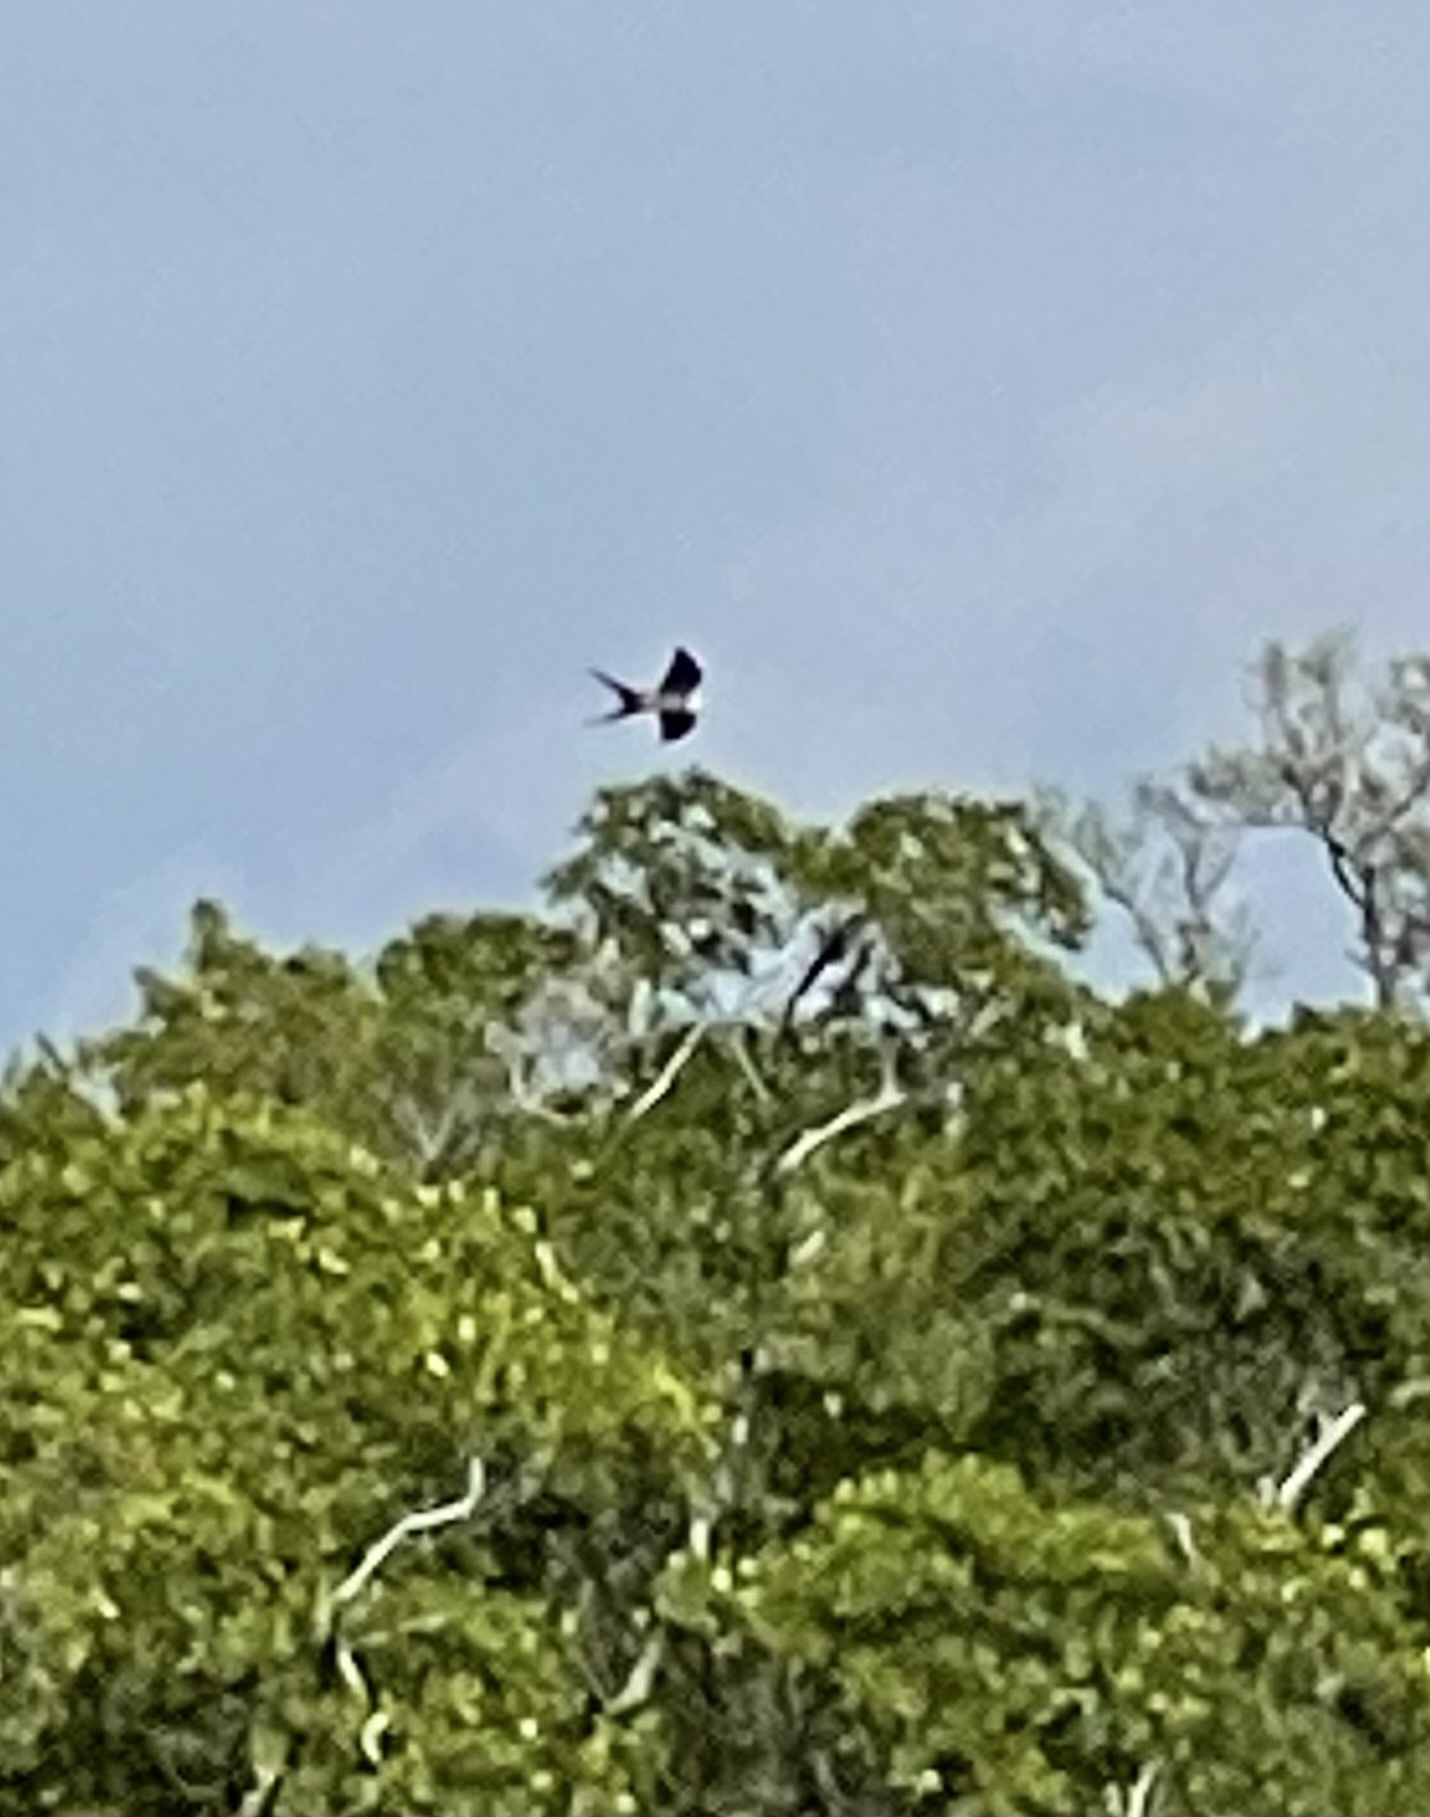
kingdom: Animalia
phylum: Chordata
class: Aves
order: Accipitriformes
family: Accipitridae
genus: Elanoides
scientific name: Elanoides forficatus
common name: Swallow-tailed kite
